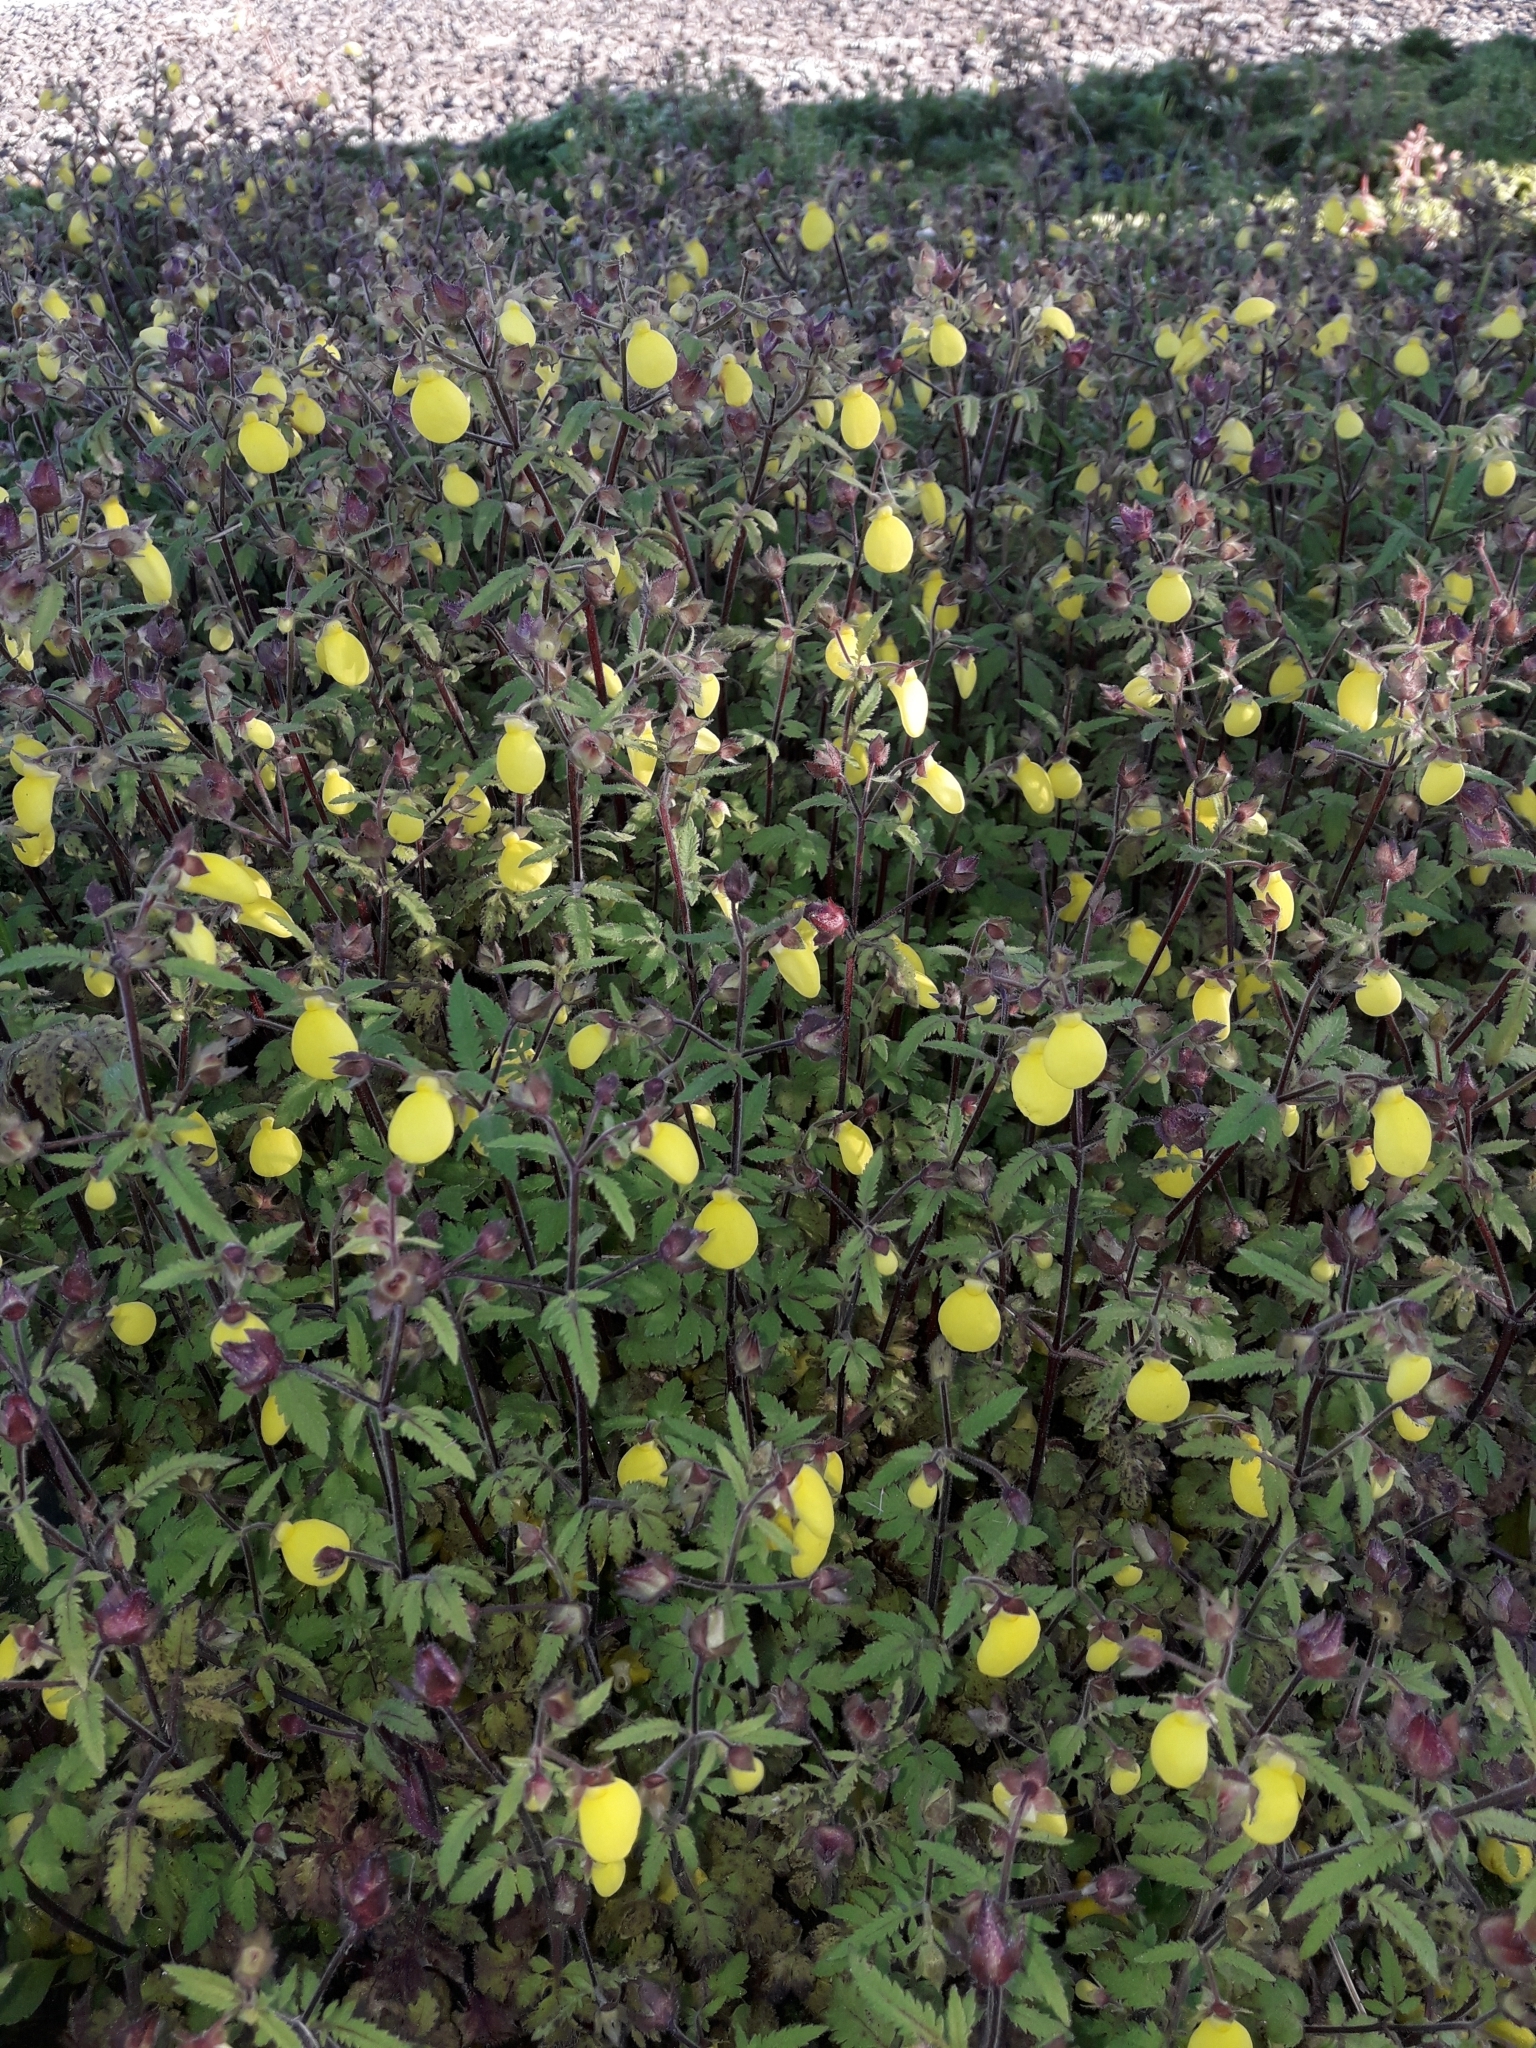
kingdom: Plantae
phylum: Tracheophyta
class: Magnoliopsida
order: Lamiales
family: Calceolariaceae
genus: Calceolaria
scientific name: Calceolaria tripartita
